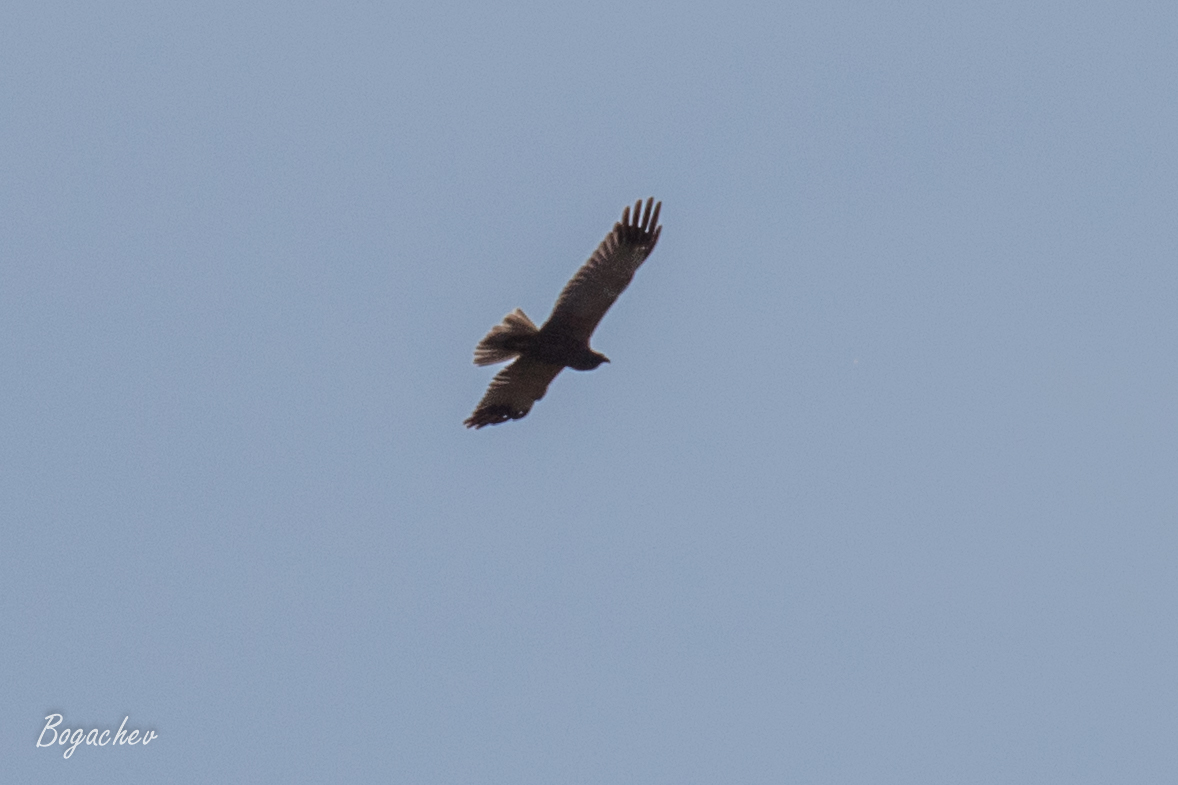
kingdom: Animalia
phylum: Chordata
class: Aves
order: Accipitriformes
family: Accipitridae
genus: Circus
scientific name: Circus aeruginosus
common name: Western marsh harrier
